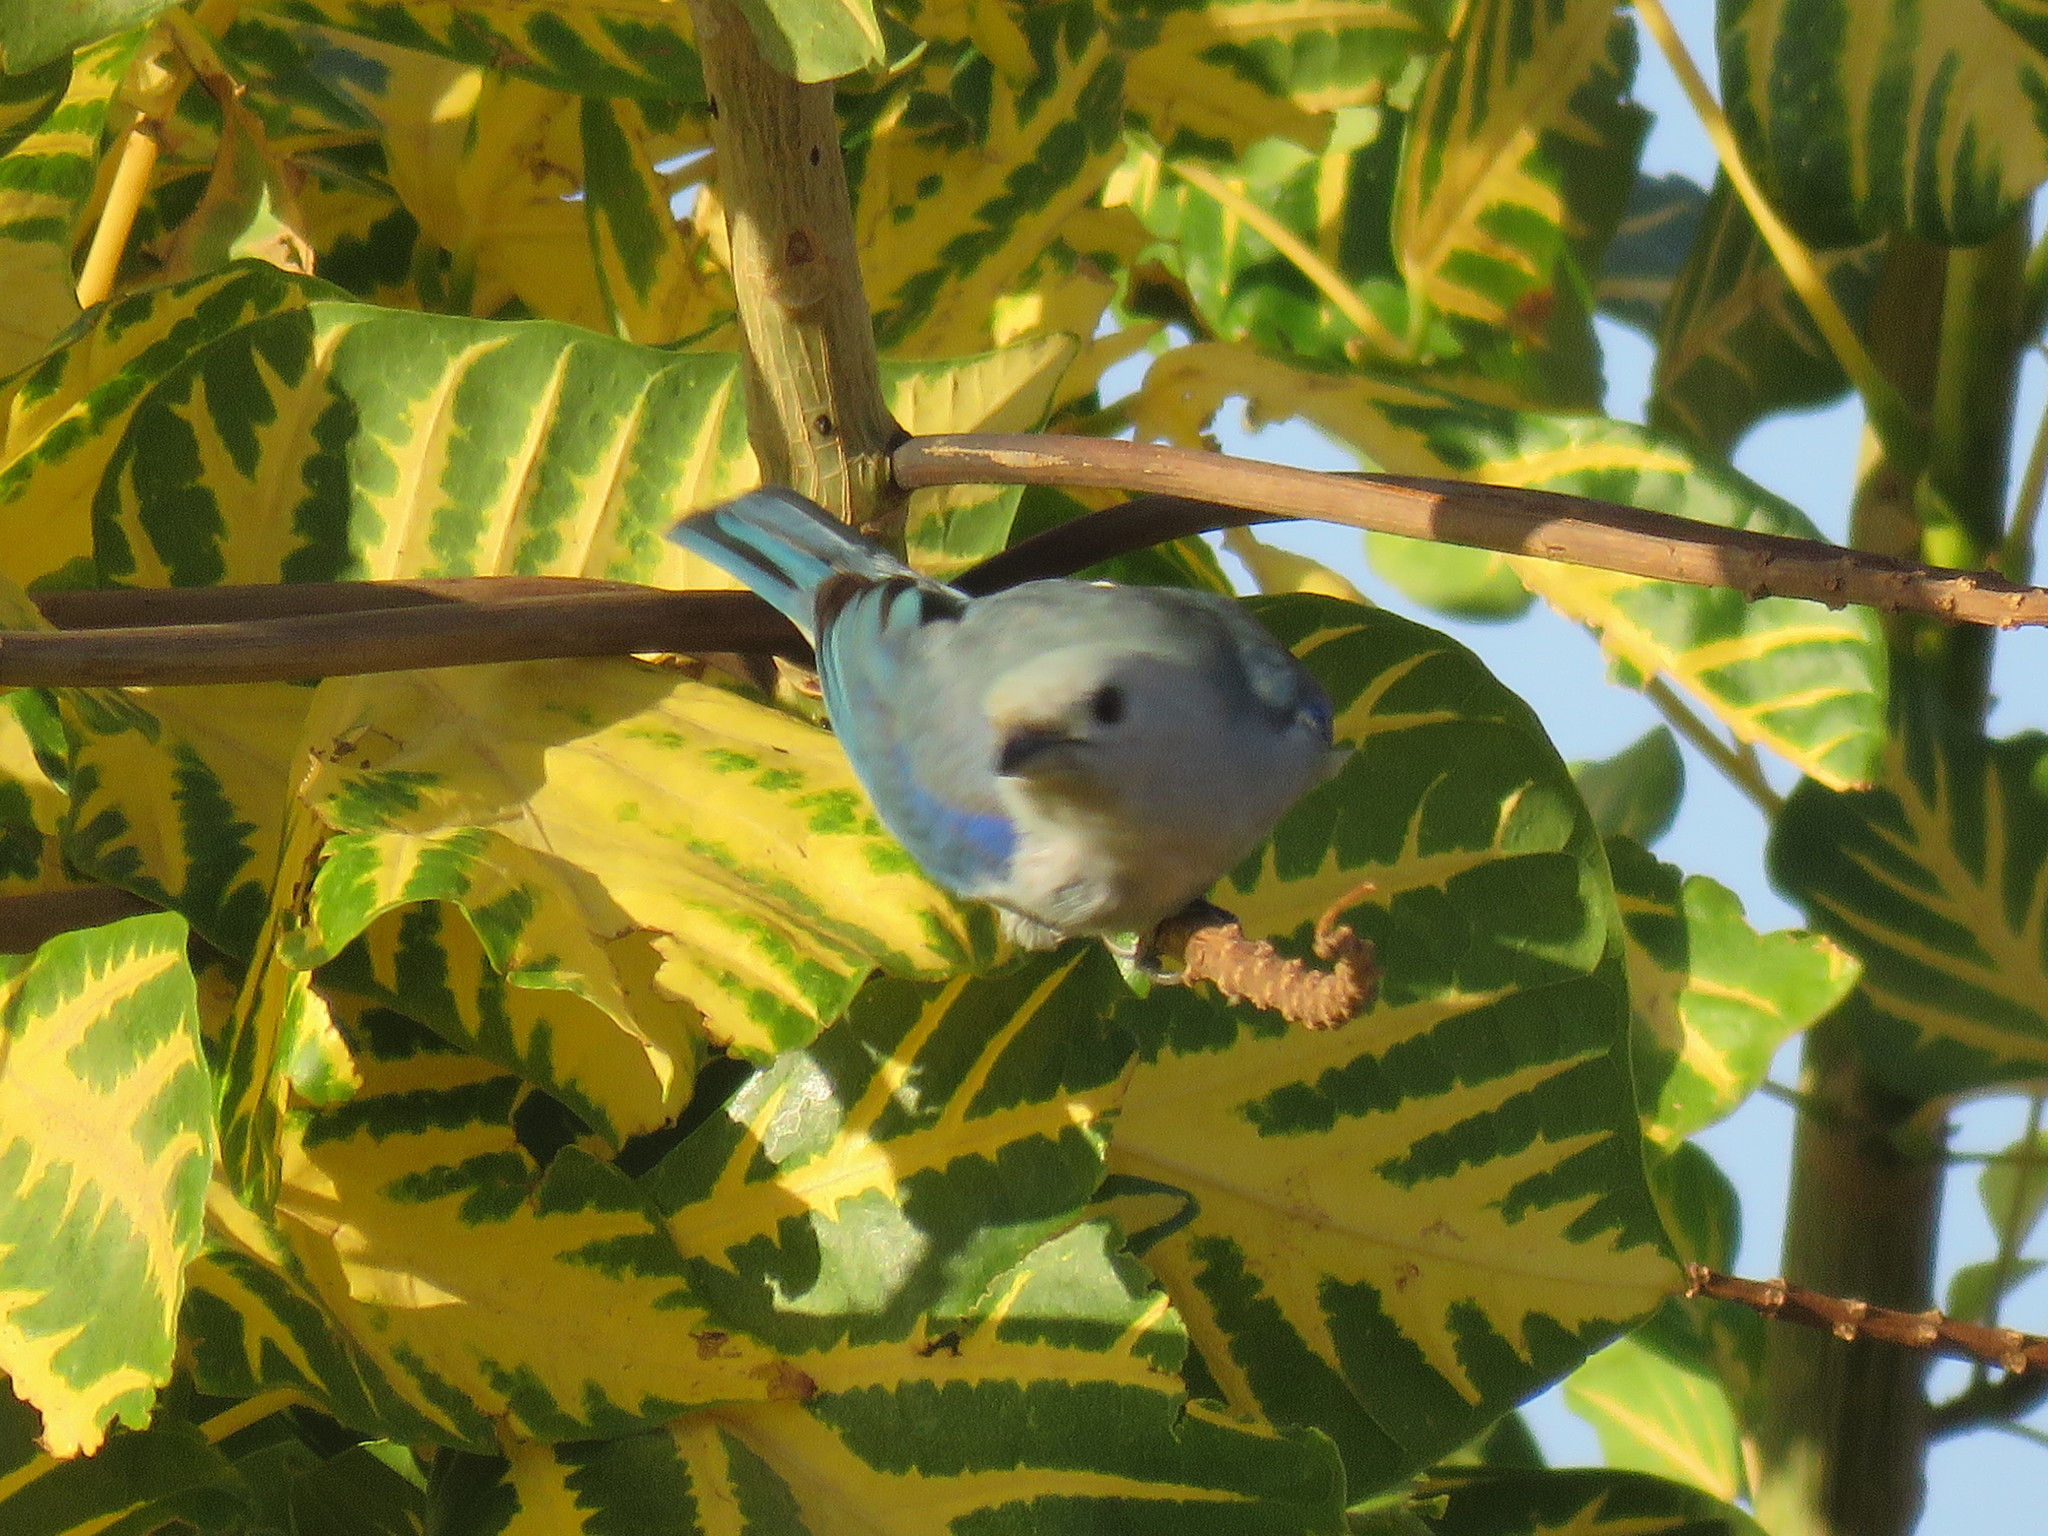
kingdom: Animalia
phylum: Chordata
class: Aves
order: Passeriformes
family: Thraupidae
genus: Thraupis
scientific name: Thraupis episcopus
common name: Blue-grey tanager
